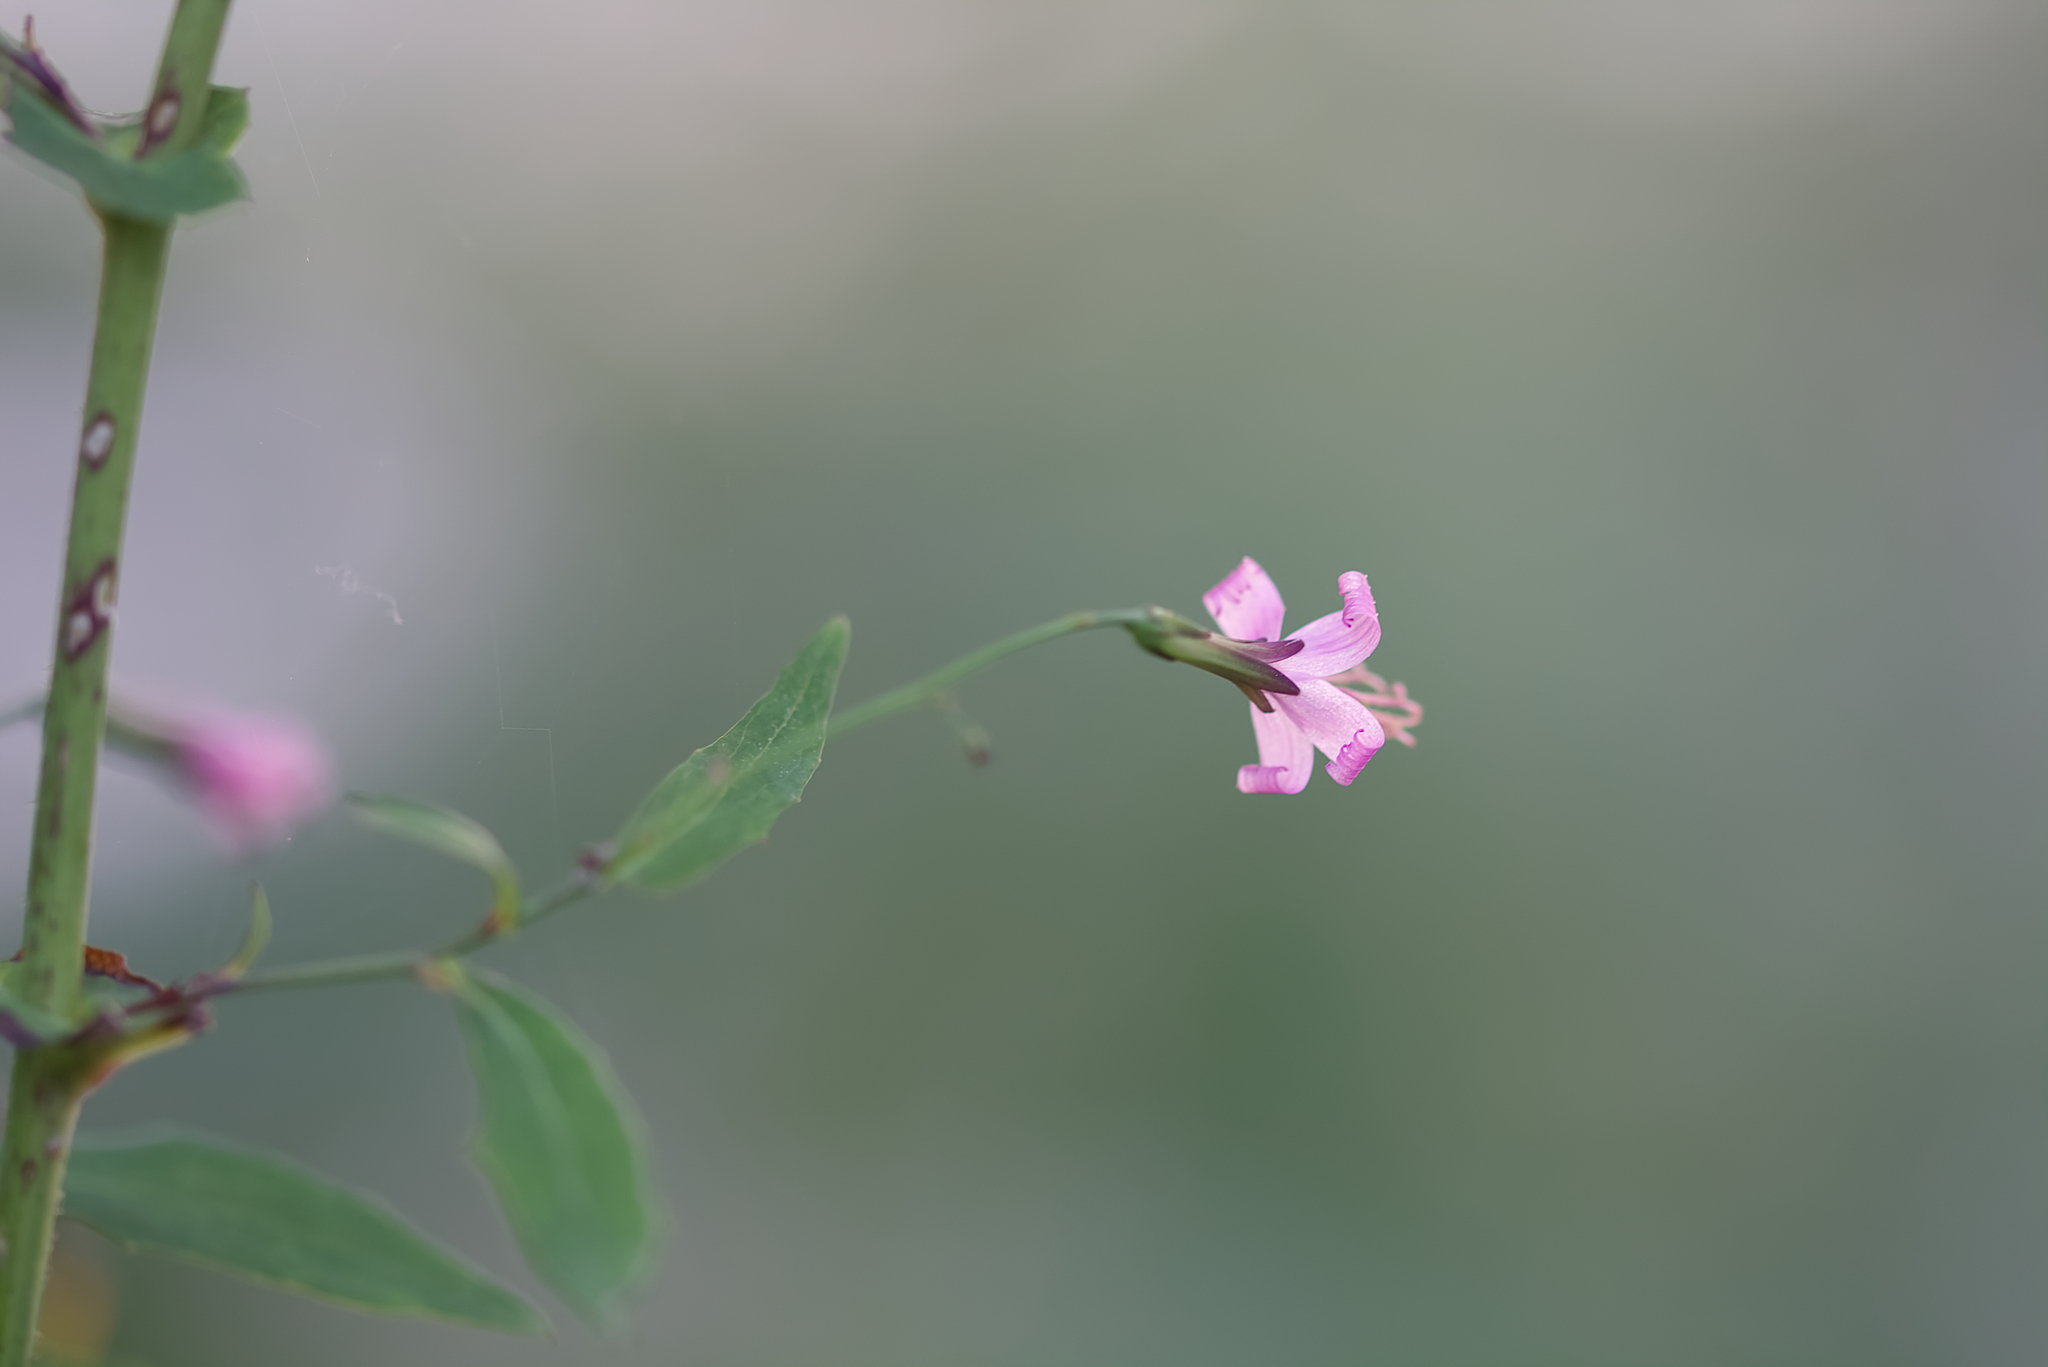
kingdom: Plantae
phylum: Tracheophyta
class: Magnoliopsida
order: Asterales
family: Asteraceae
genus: Prenanthes
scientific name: Prenanthes purpurea
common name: Purple lettuce
